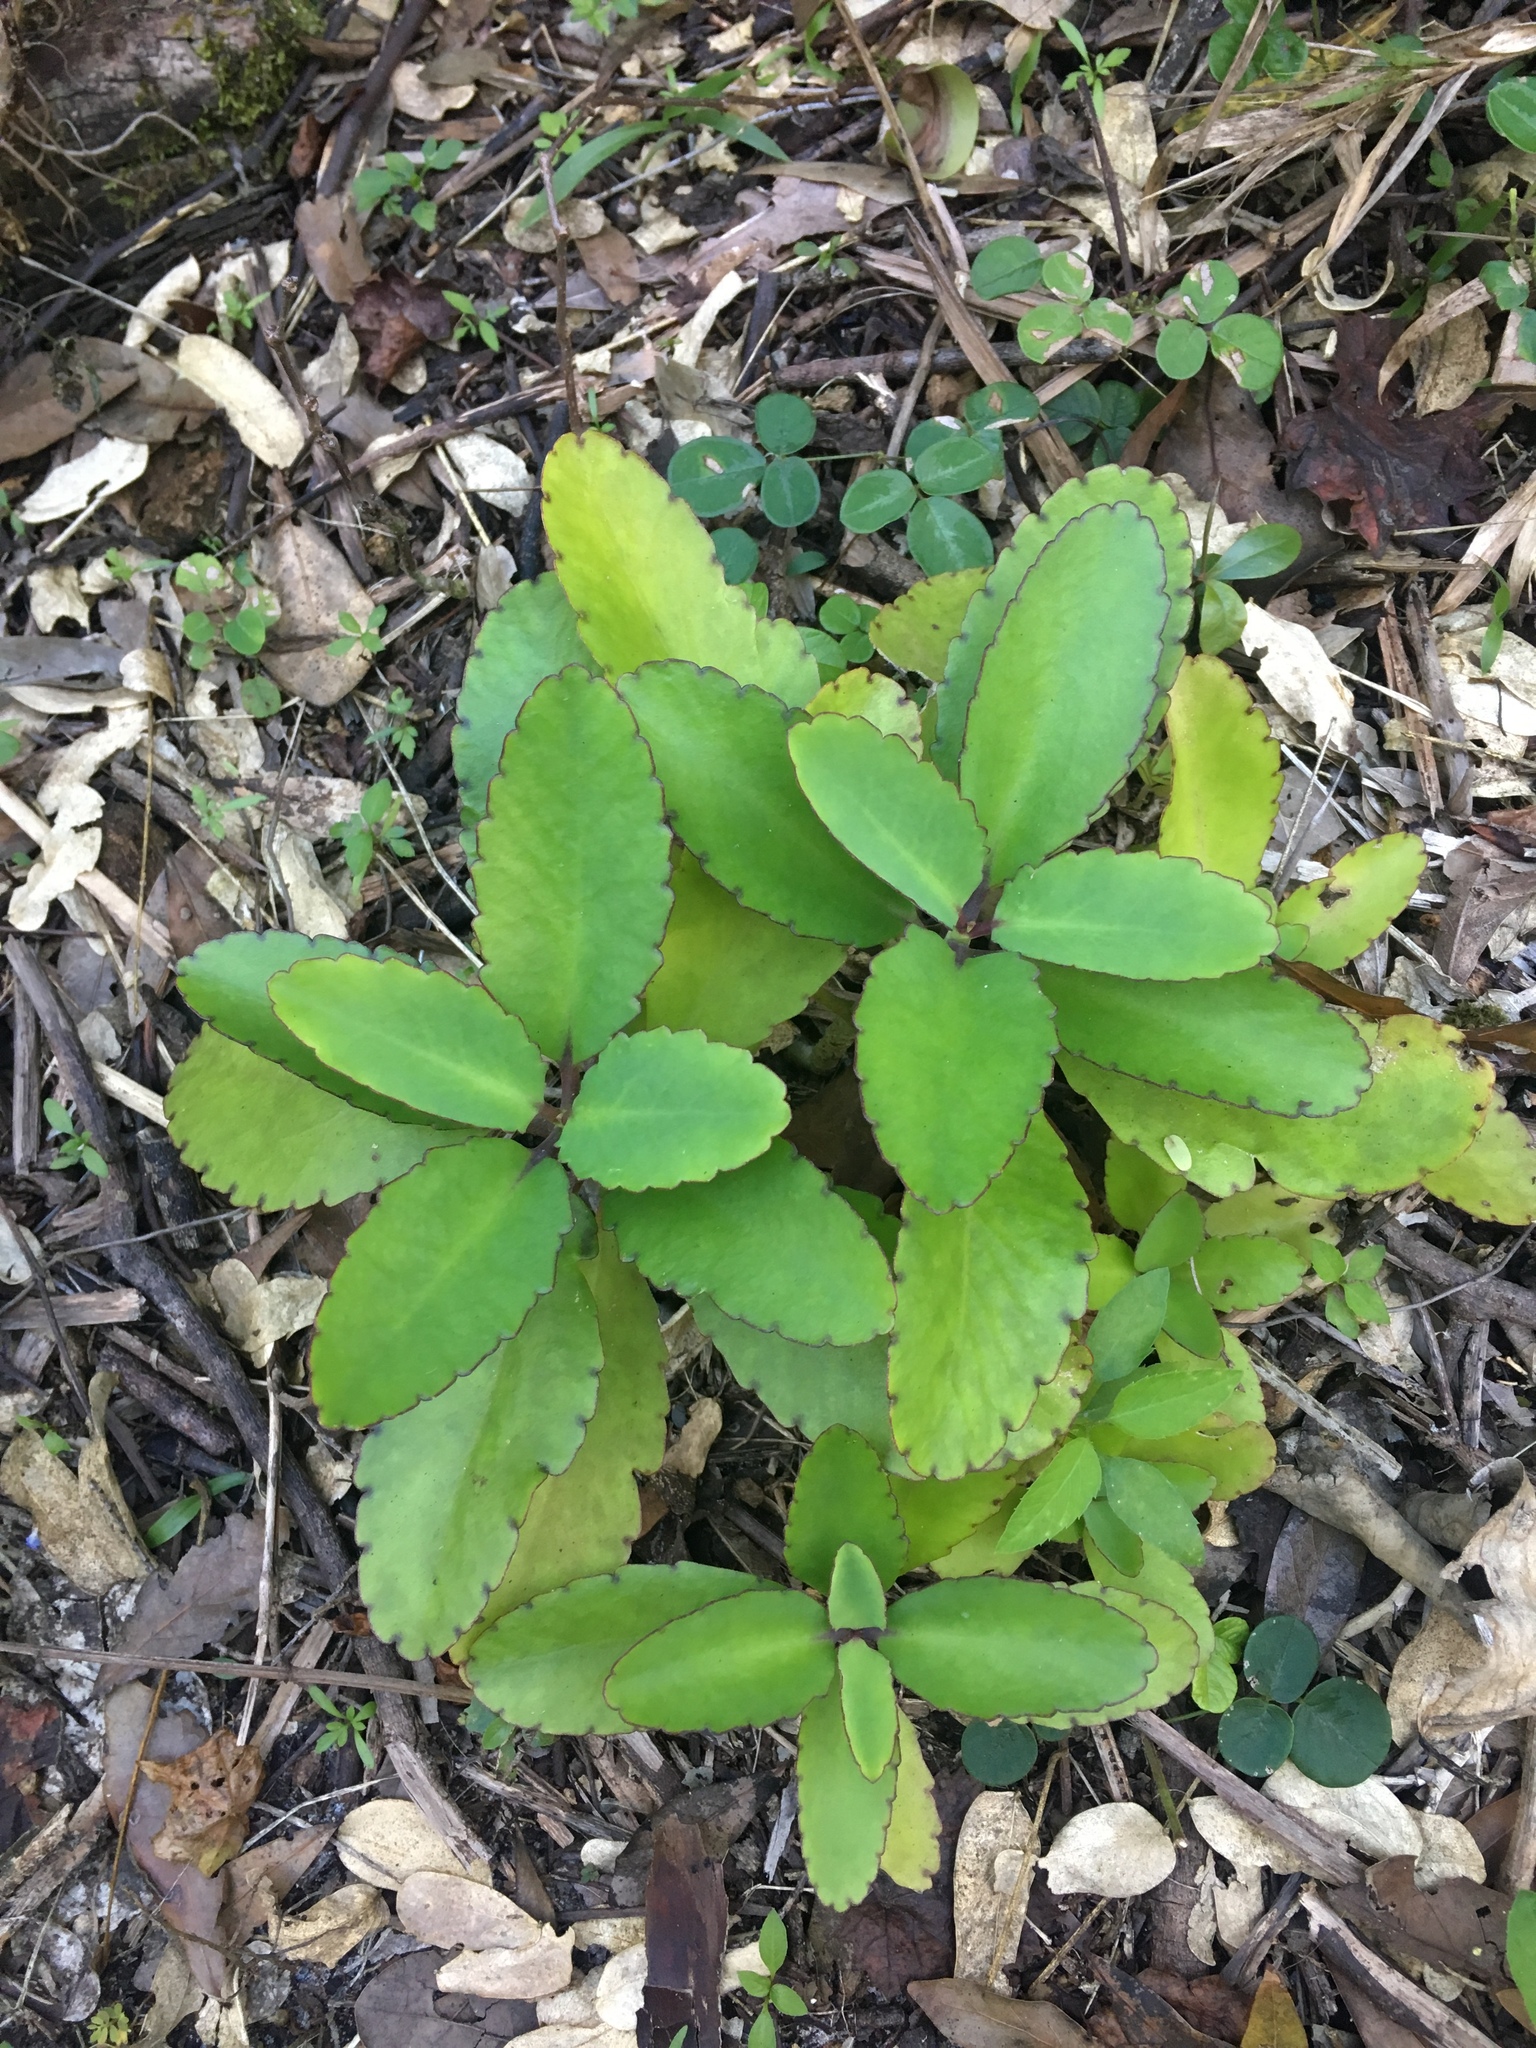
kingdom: Plantae
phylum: Tracheophyta
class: Magnoliopsida
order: Saxifragales
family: Crassulaceae
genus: Kalanchoe
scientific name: Kalanchoe pinnata
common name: Cathedral bells
